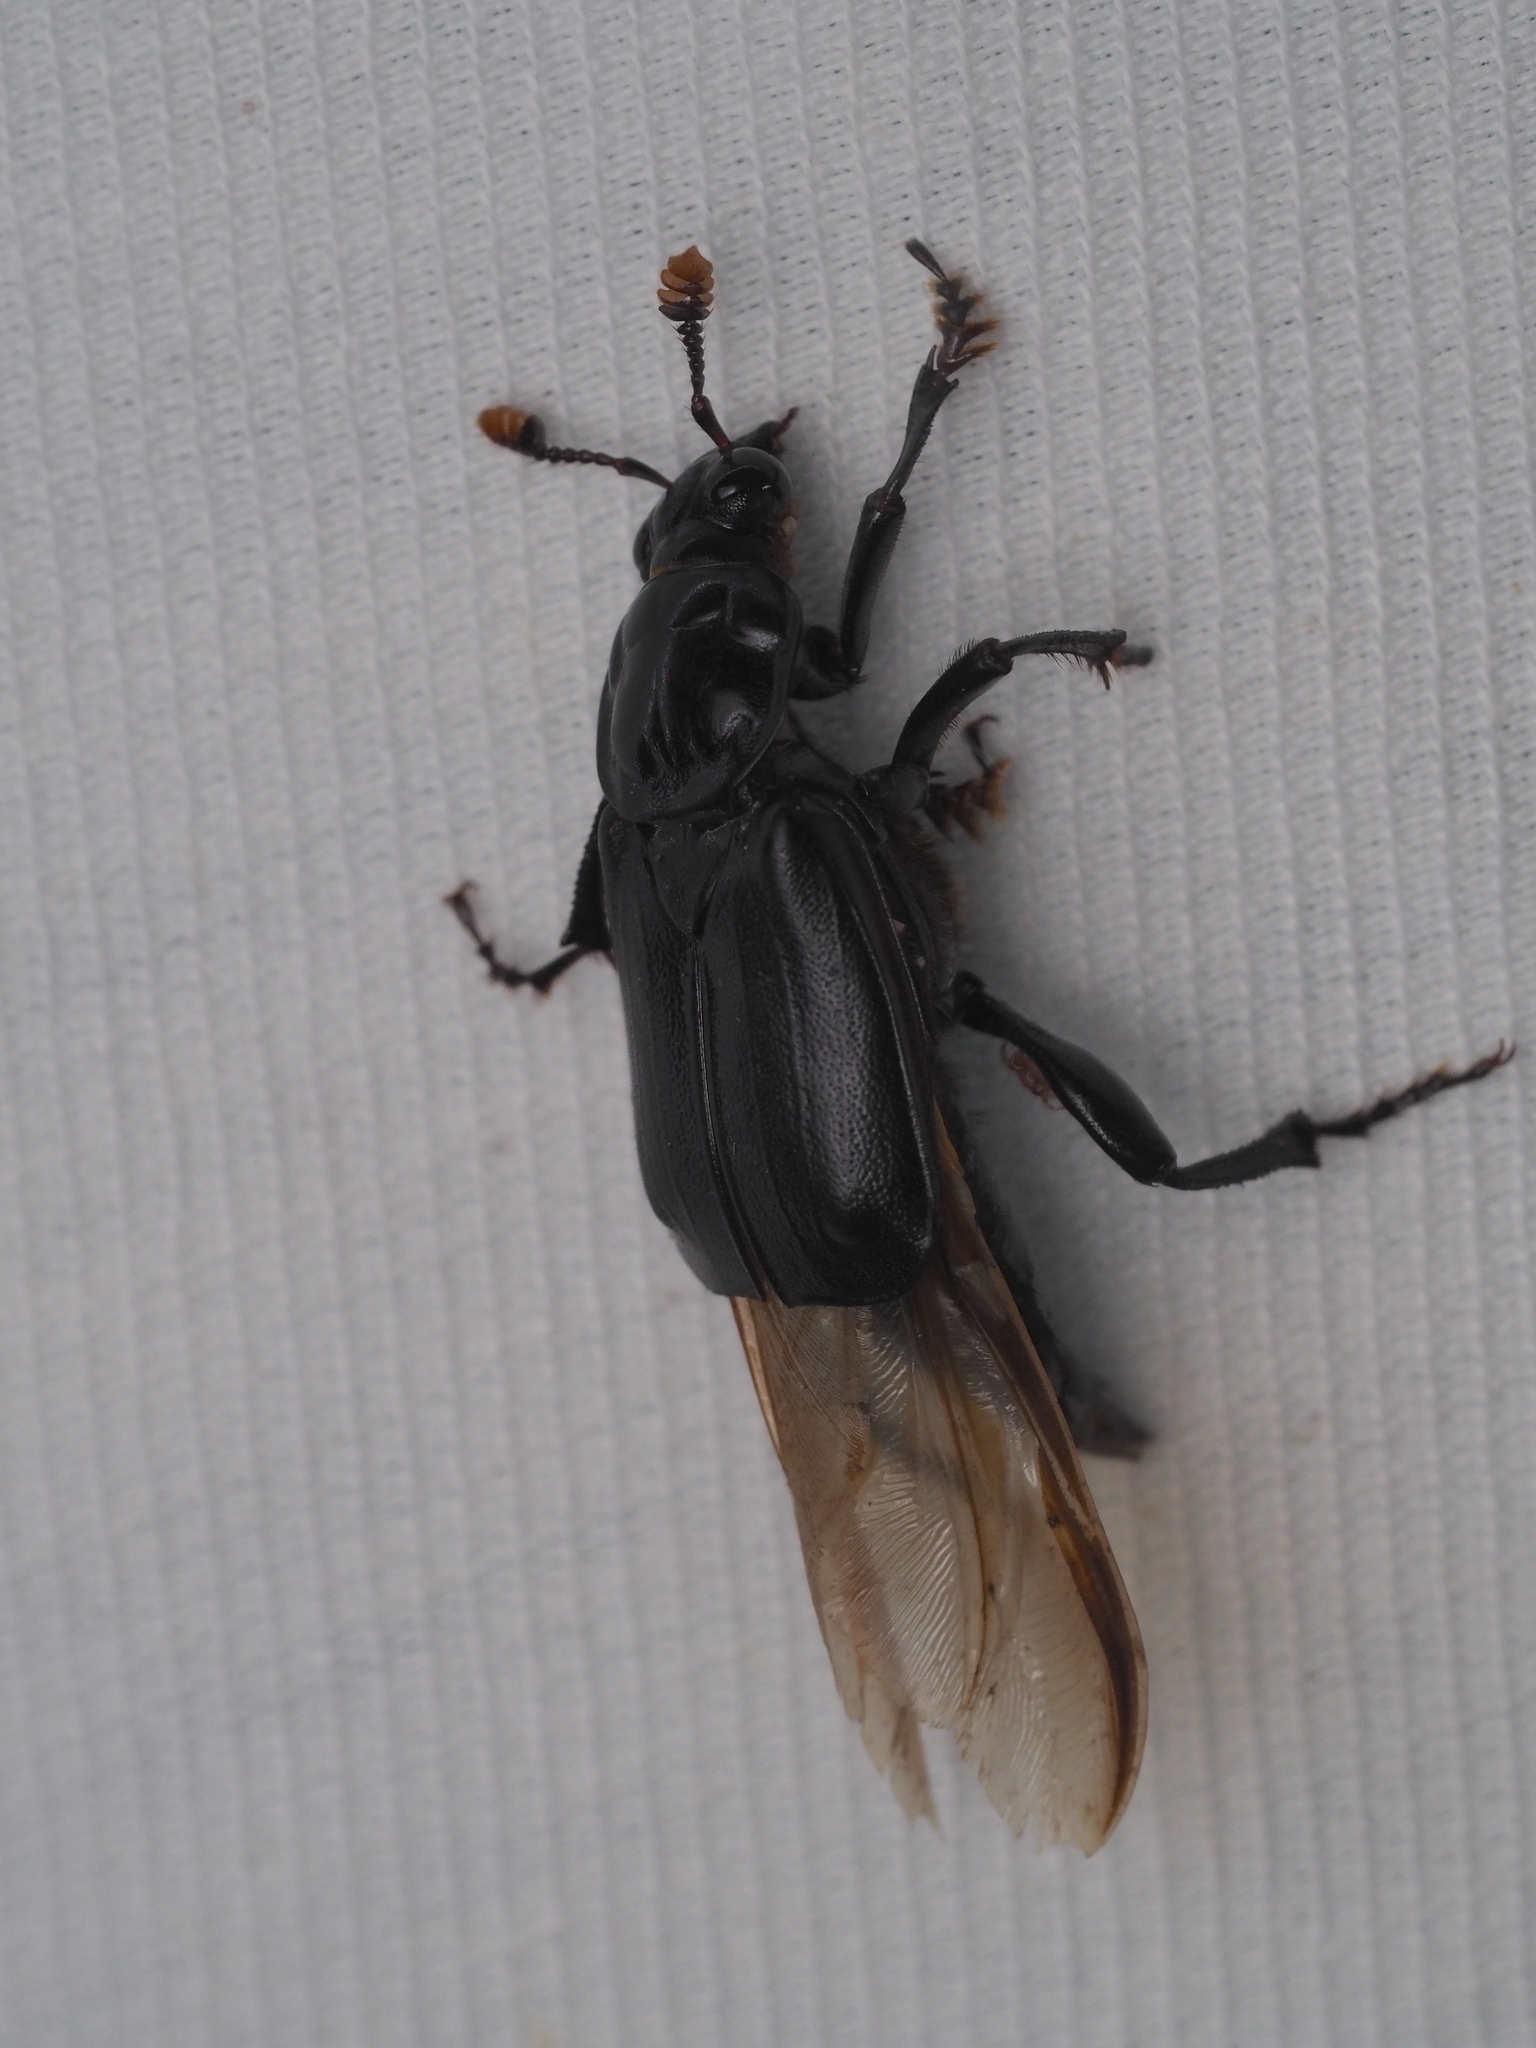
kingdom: Animalia
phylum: Arthropoda
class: Insecta
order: Coleoptera
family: Staphylinidae
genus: Nicrophorus
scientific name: Nicrophorus humator
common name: Black sexton beetle
